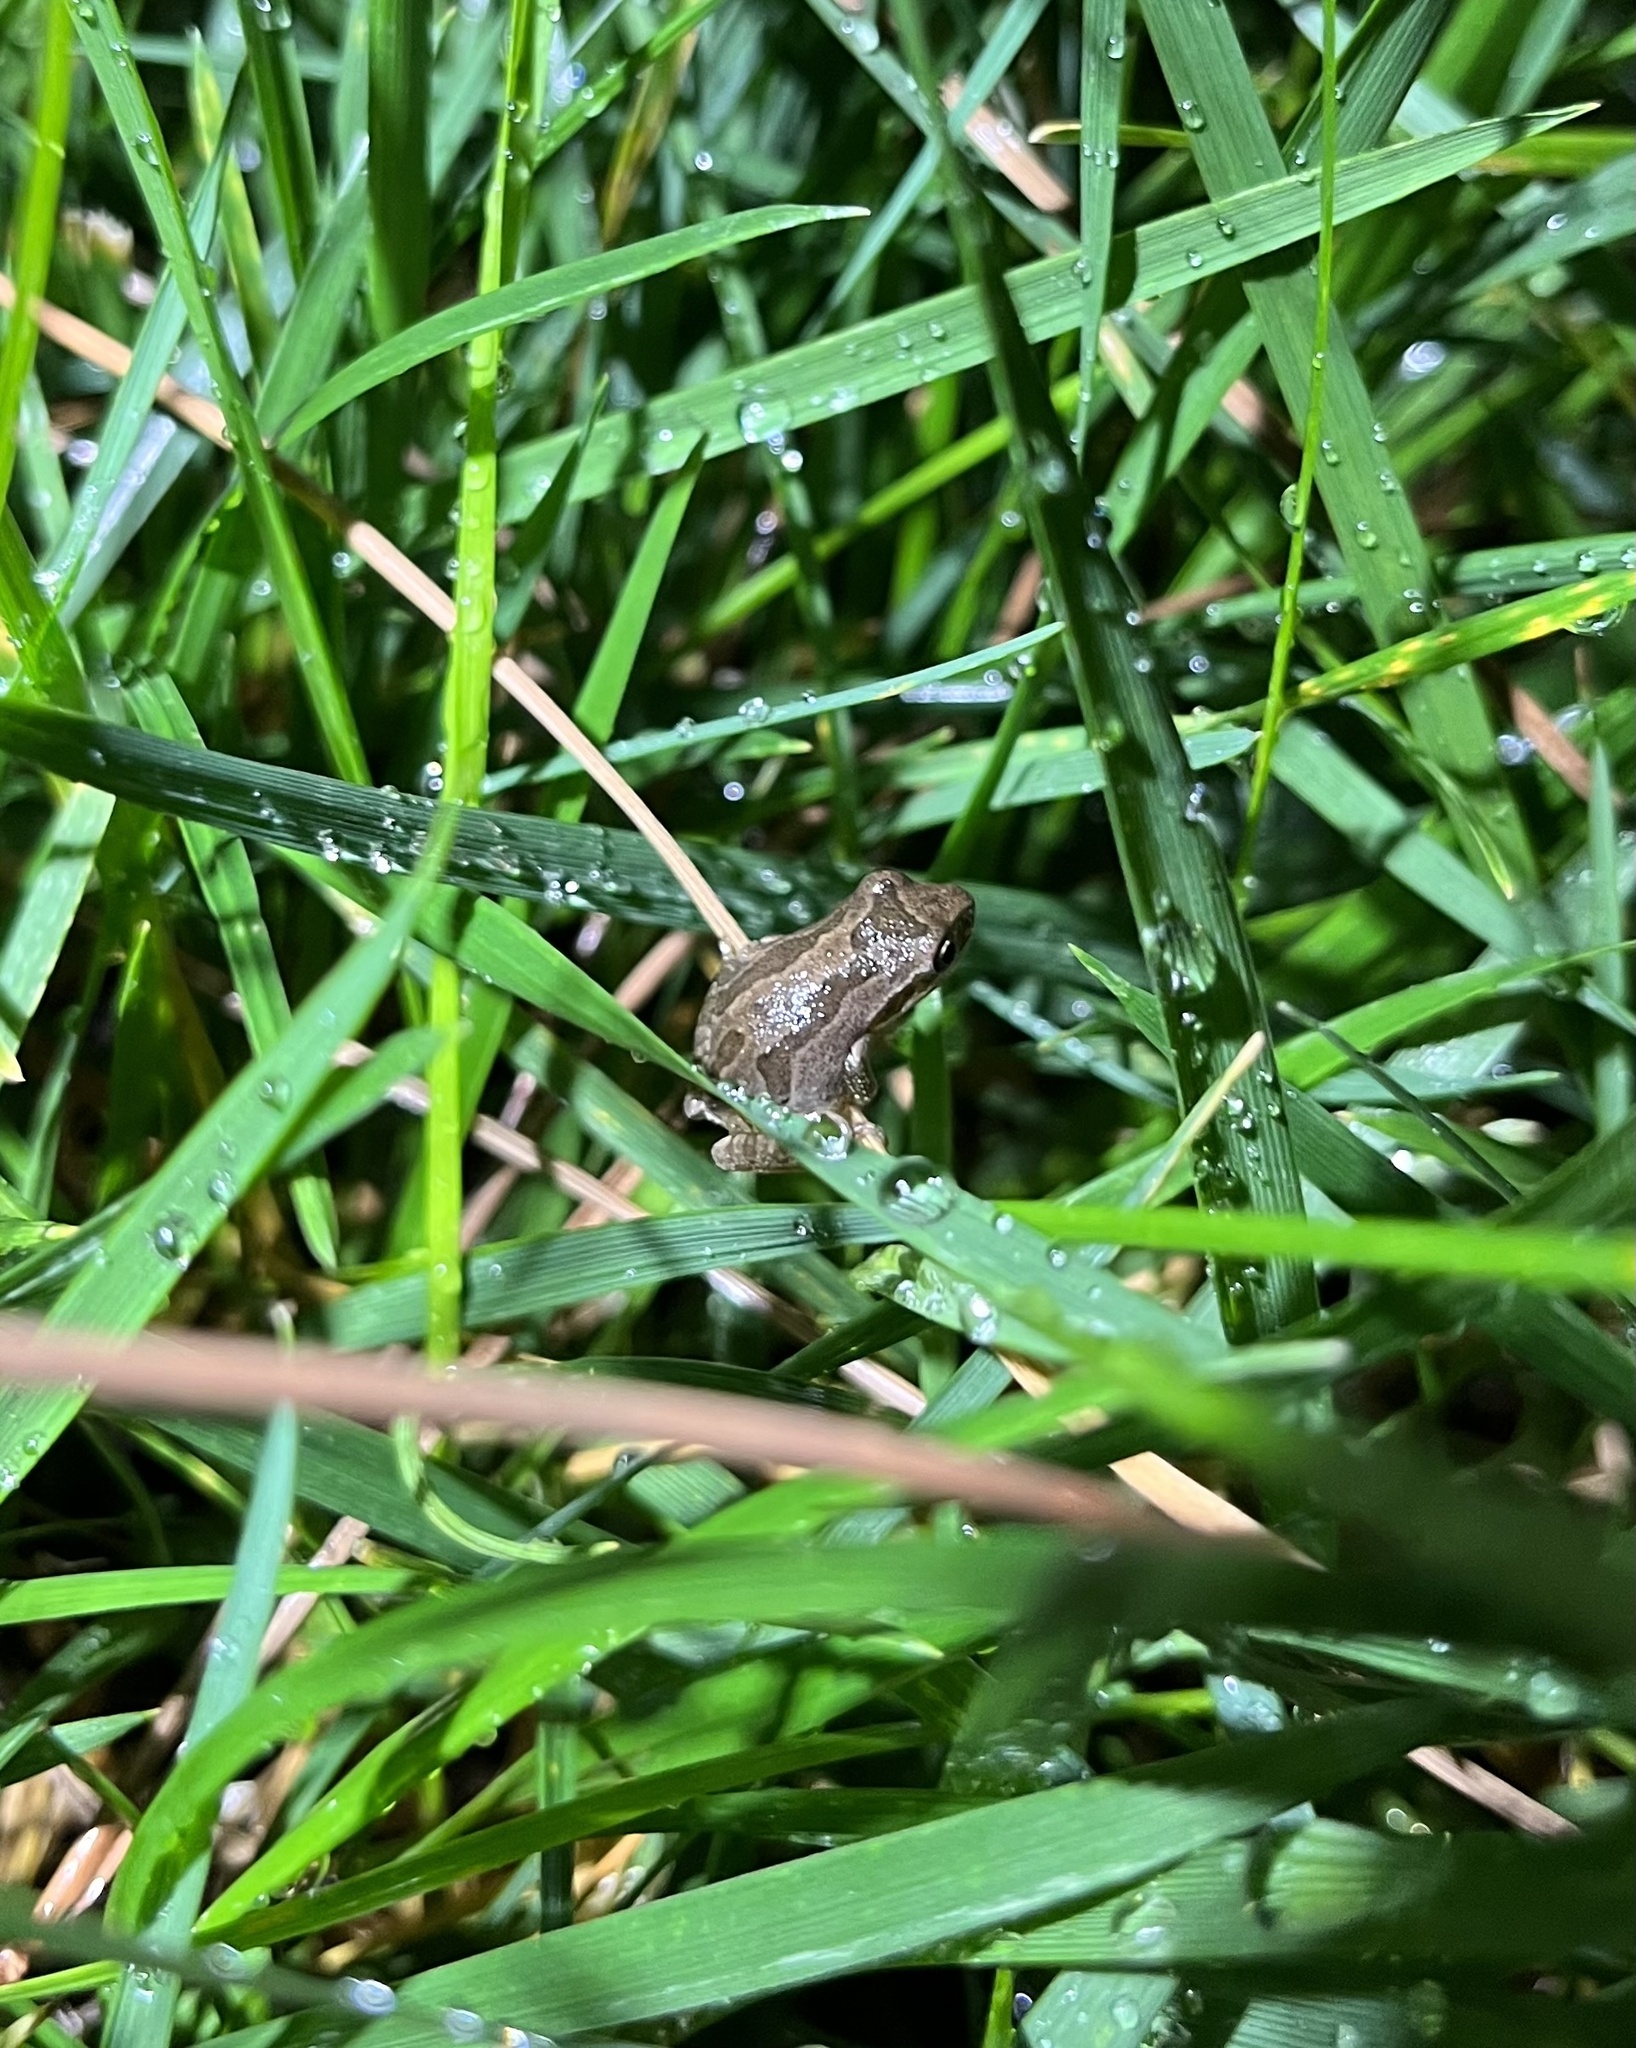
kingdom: Animalia
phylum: Chordata
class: Amphibia
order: Anura
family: Hylidae
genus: Pseudacris
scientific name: Pseudacris regilla
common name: Pacific chorus frog
